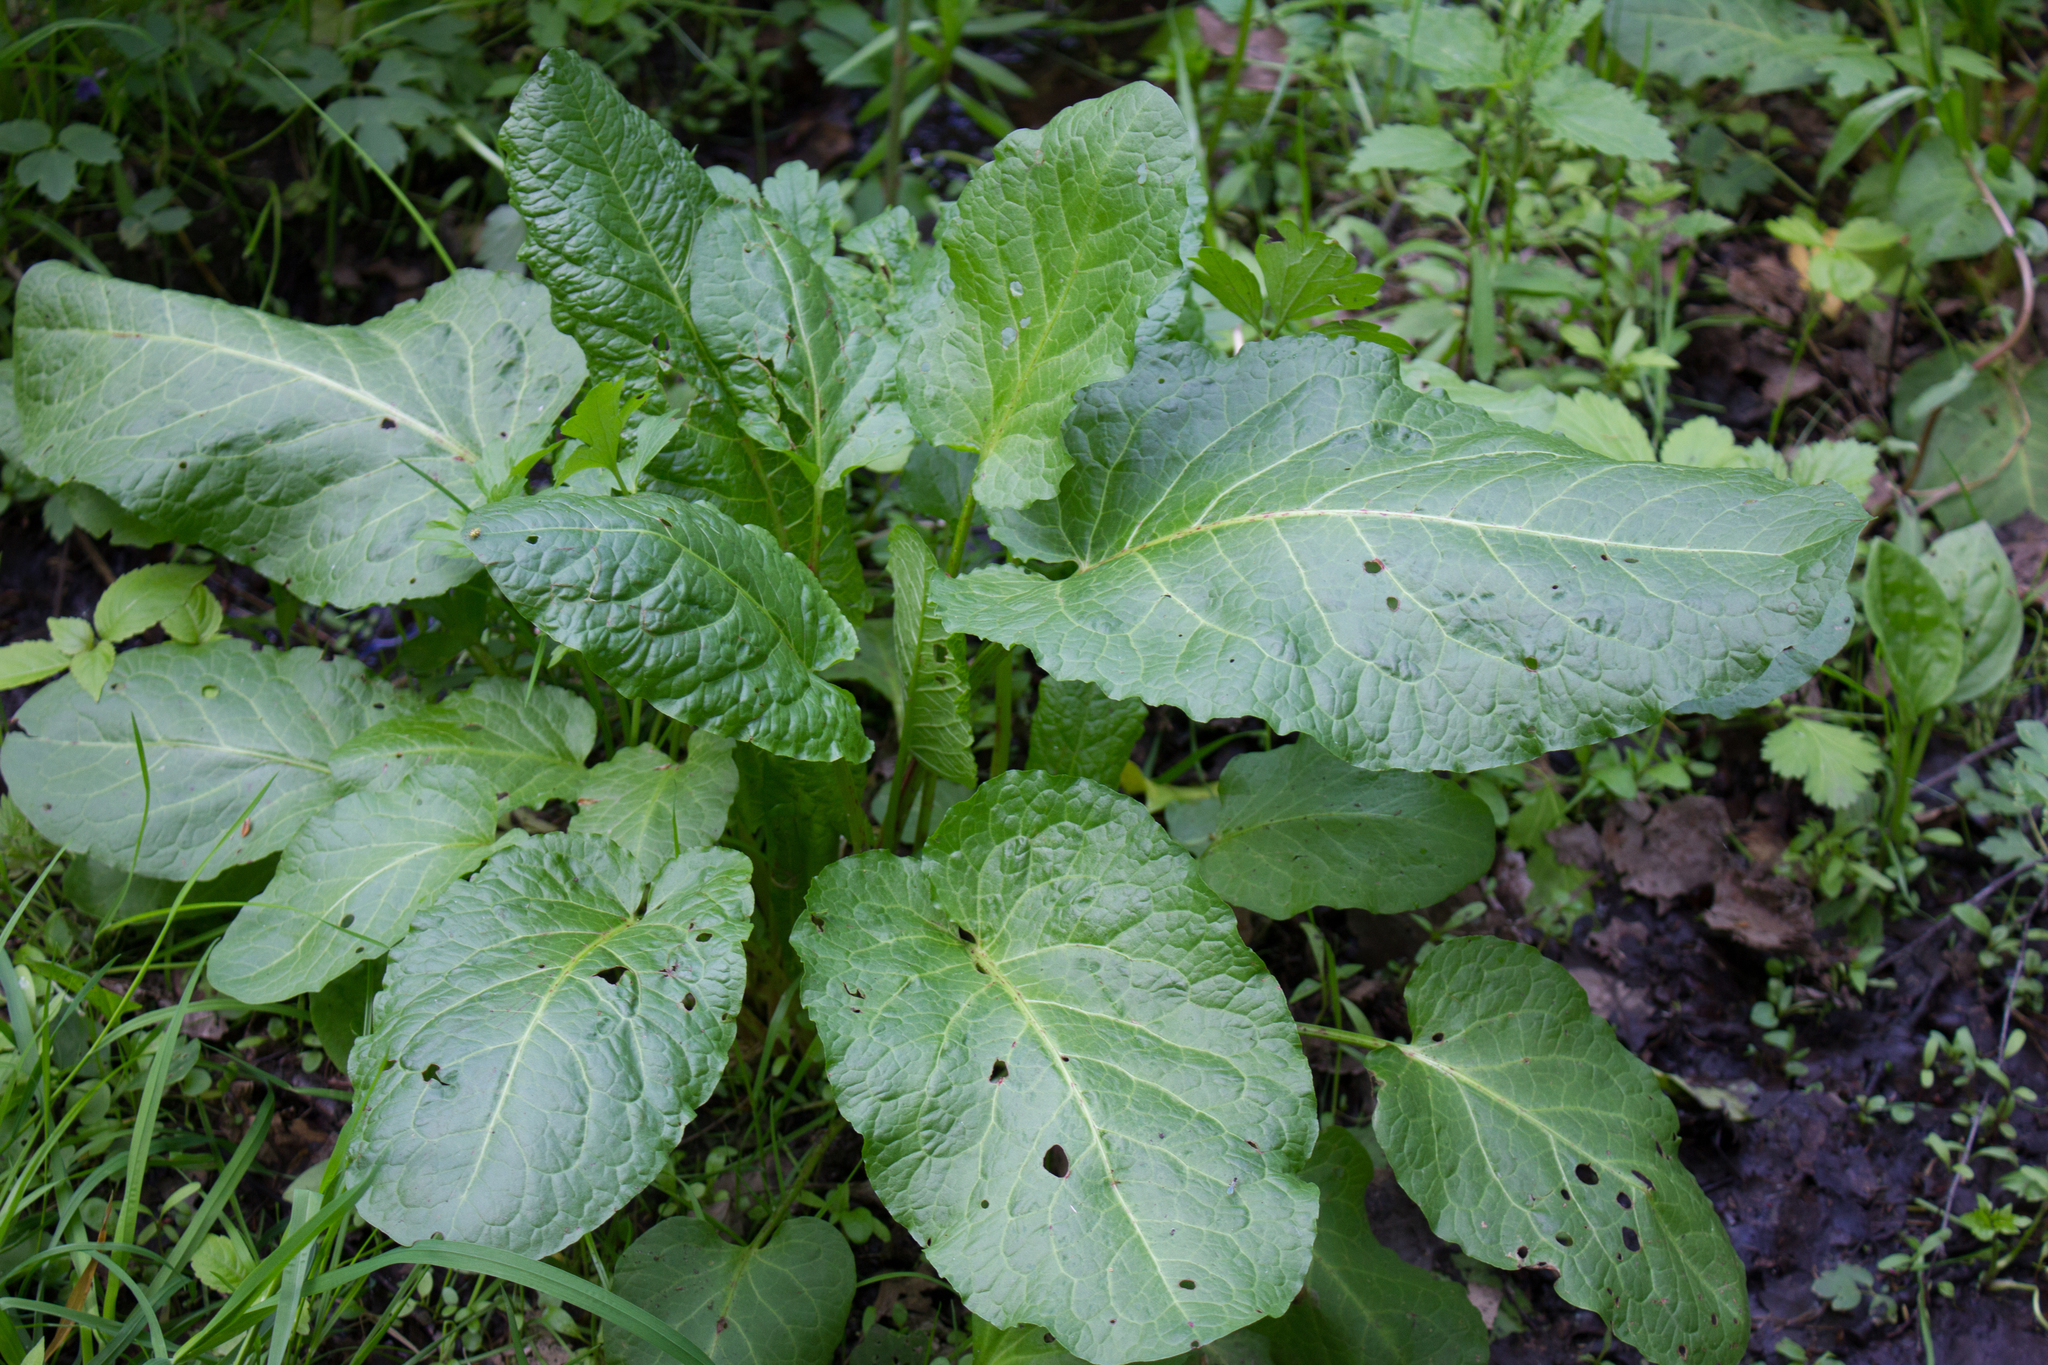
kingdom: Plantae
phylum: Tracheophyta
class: Magnoliopsida
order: Caryophyllales
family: Polygonaceae
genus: Rumex
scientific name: Rumex obtusifolius
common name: Bitter dock
